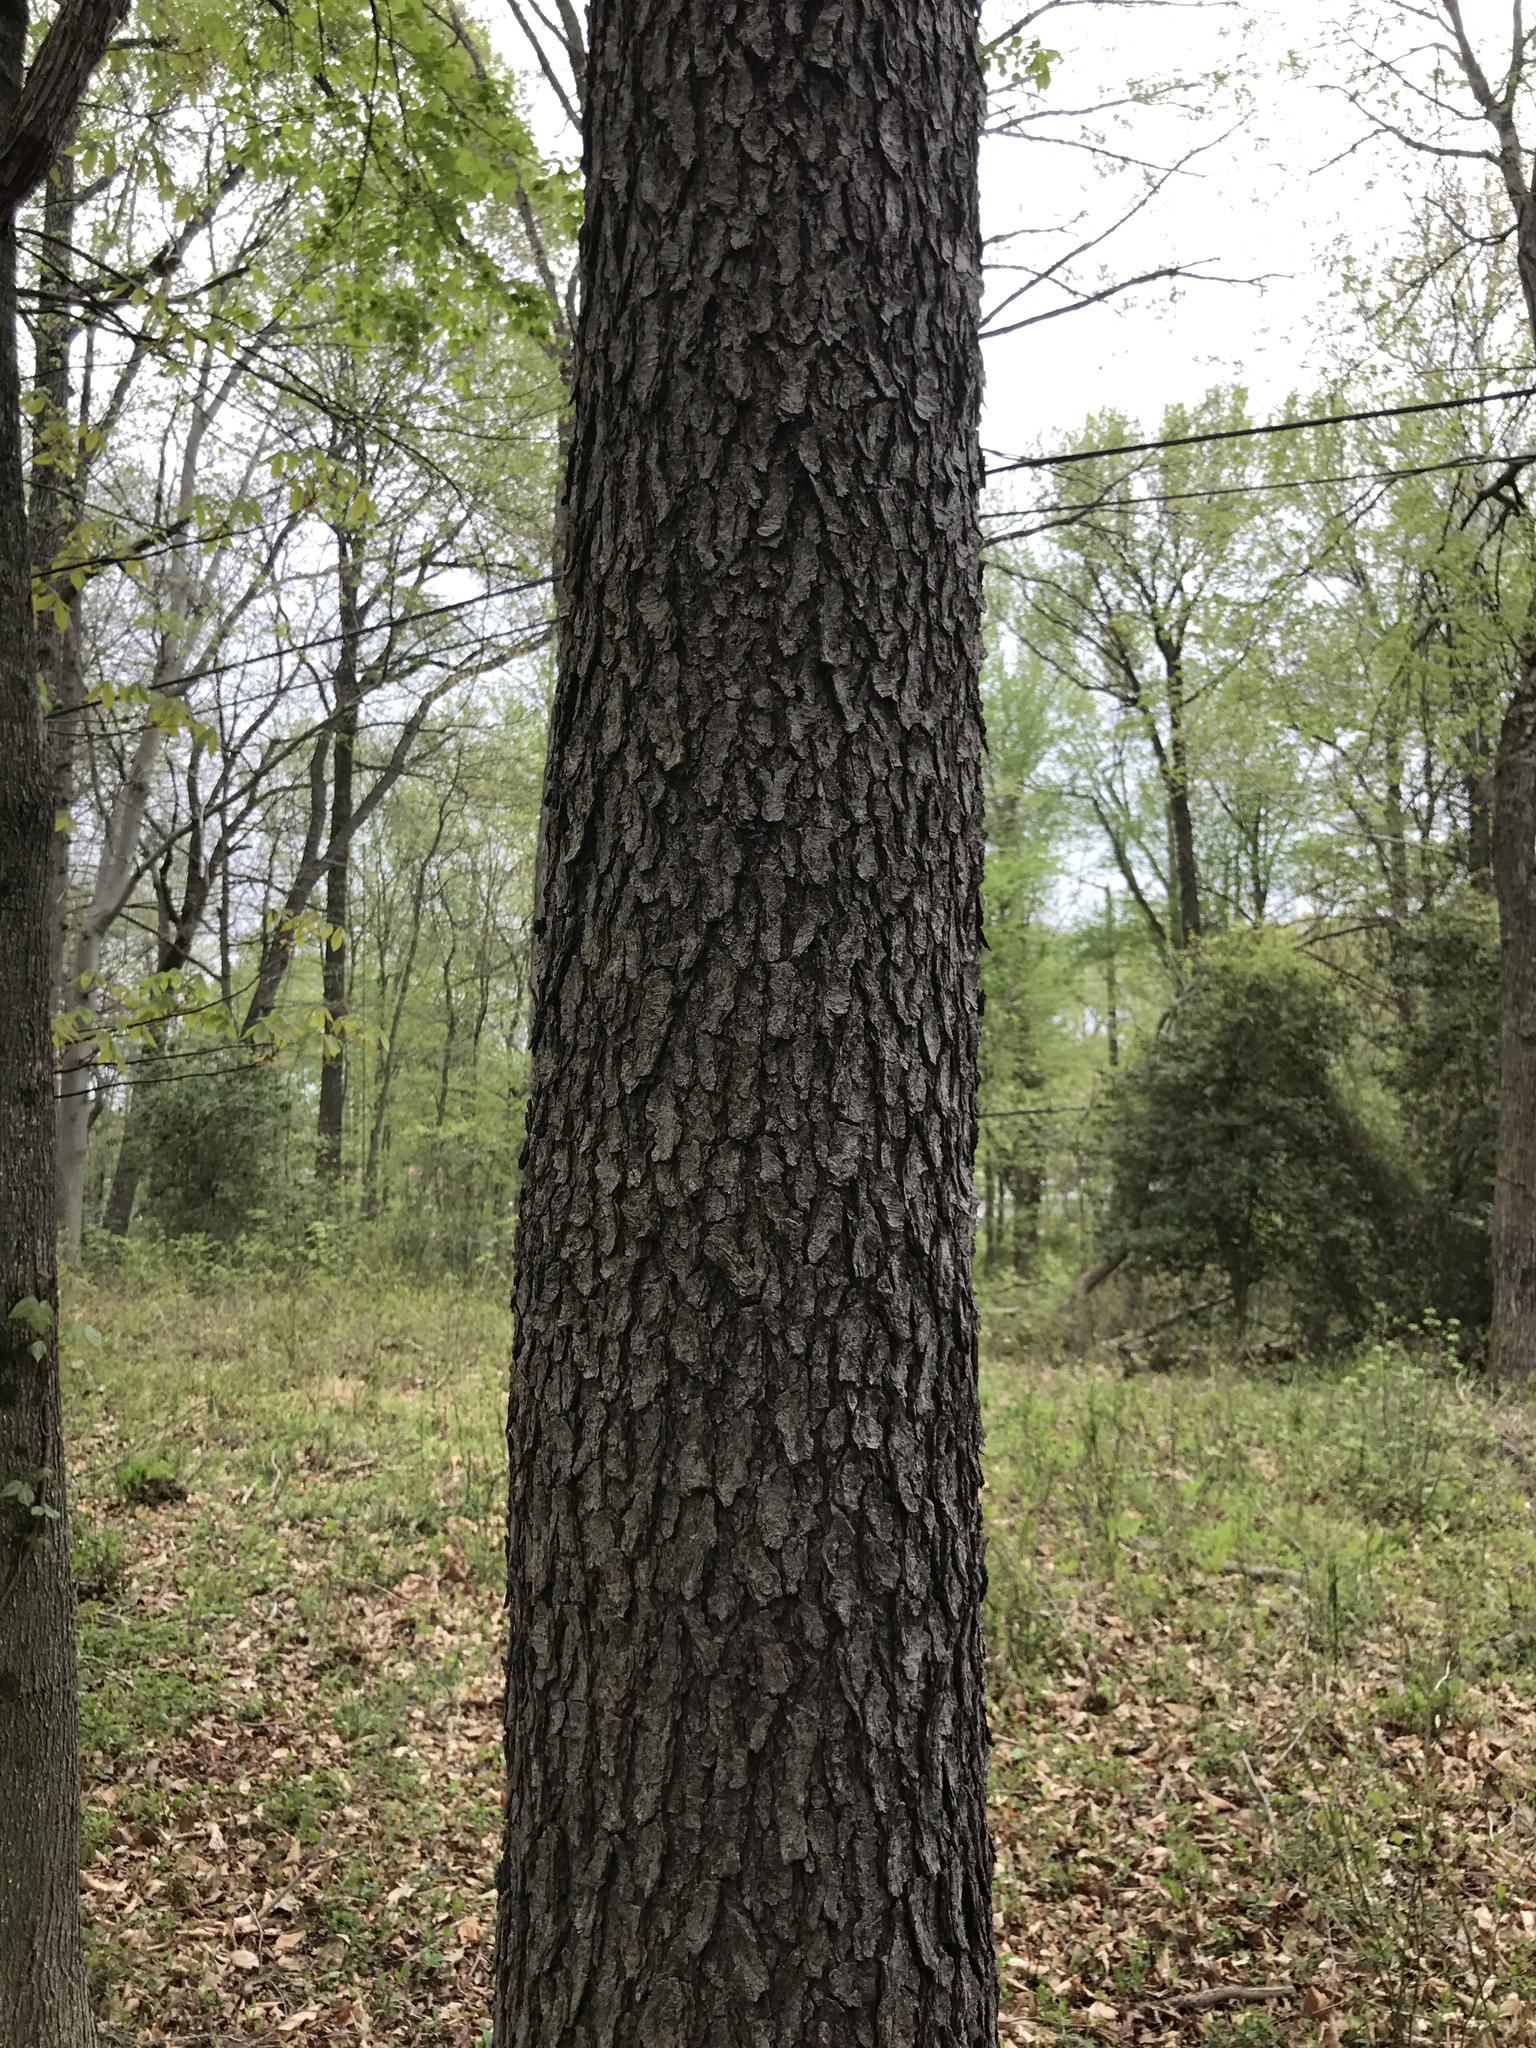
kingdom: Plantae
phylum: Tracheophyta
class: Magnoliopsida
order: Rosales
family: Rosaceae
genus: Prunus
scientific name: Prunus serotina
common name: Black cherry
